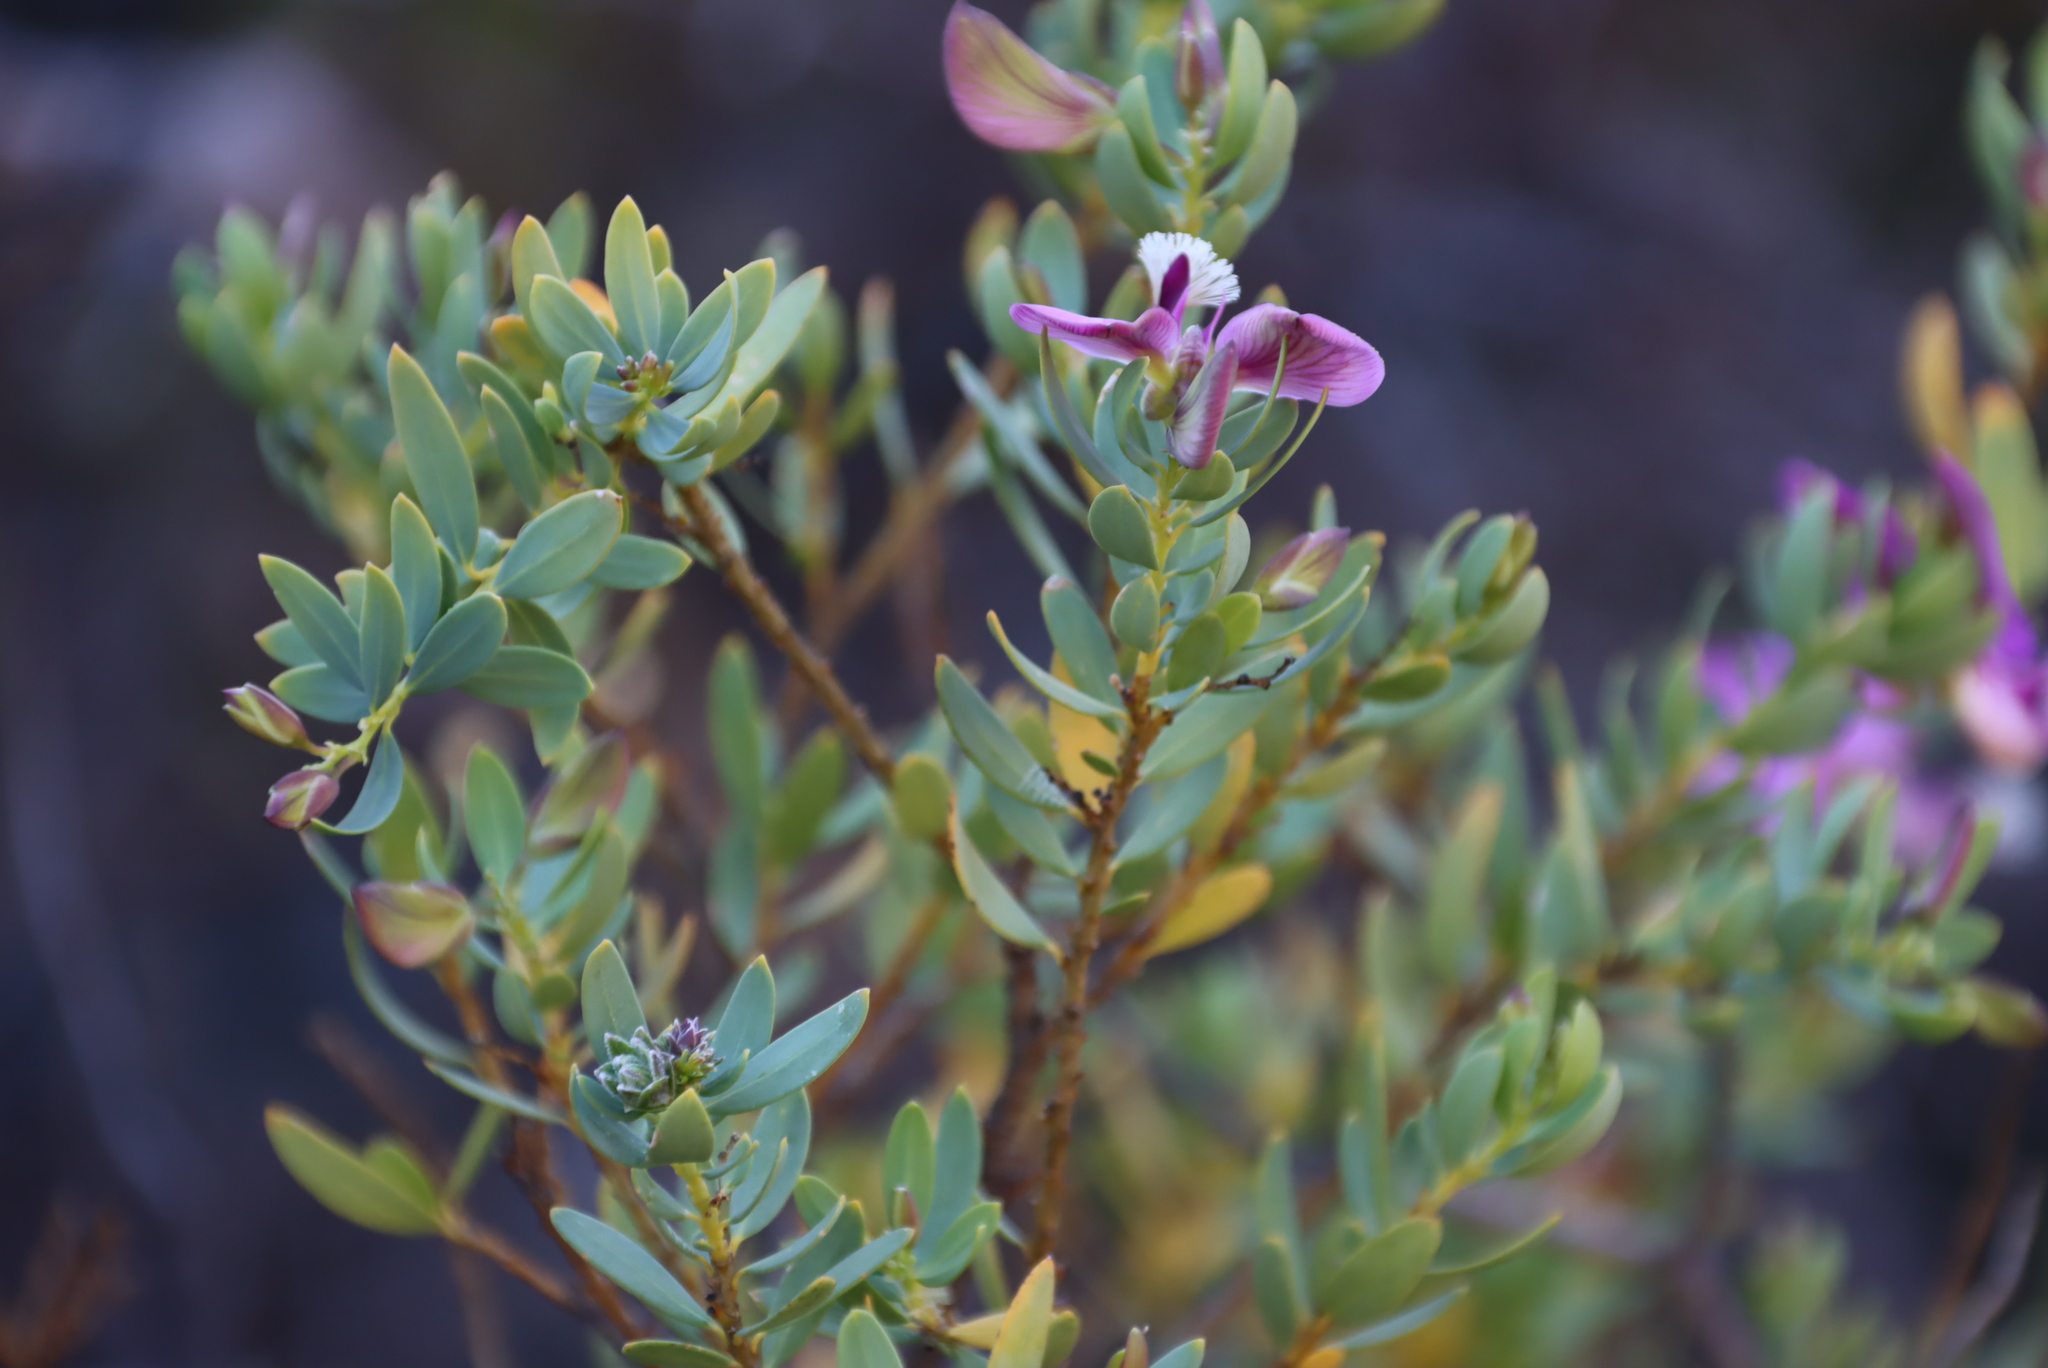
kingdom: Plantae
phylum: Tracheophyta
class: Magnoliopsida
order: Fabales
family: Polygalaceae
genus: Polygala
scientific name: Polygala myrtifolia
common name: Myrtle-leaf milkwort
